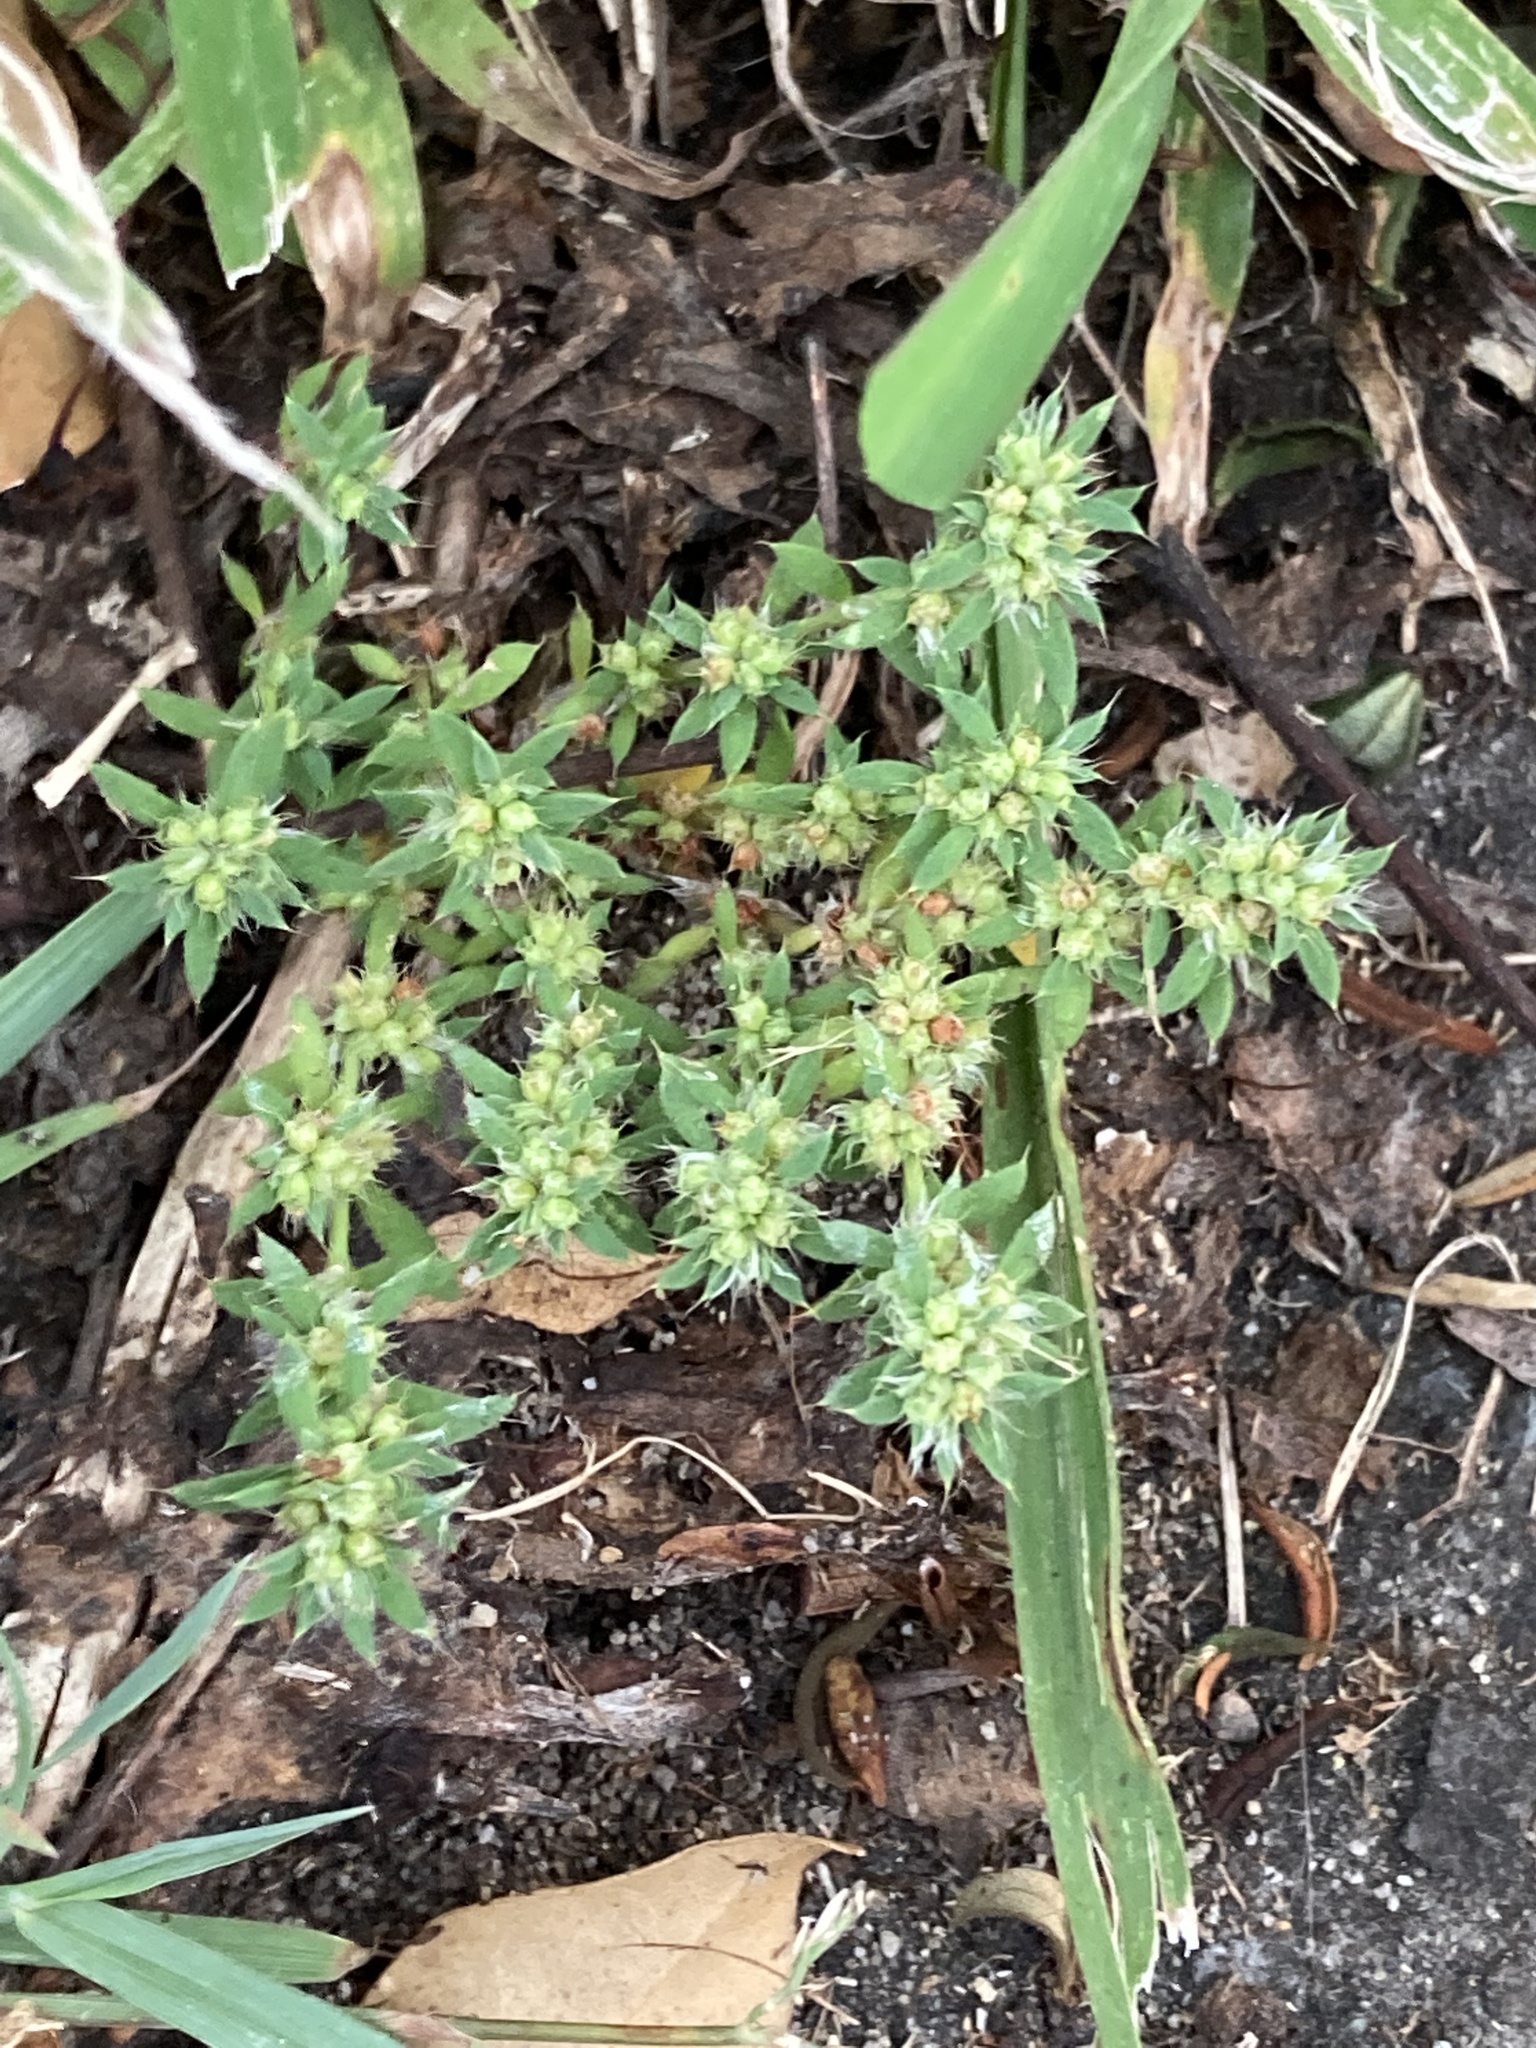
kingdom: Plantae
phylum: Tracheophyta
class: Magnoliopsida
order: Caryophyllales
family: Caryophyllaceae
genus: Paronychia
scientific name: Paronychia brasiliana
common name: Brazilian whitlow
